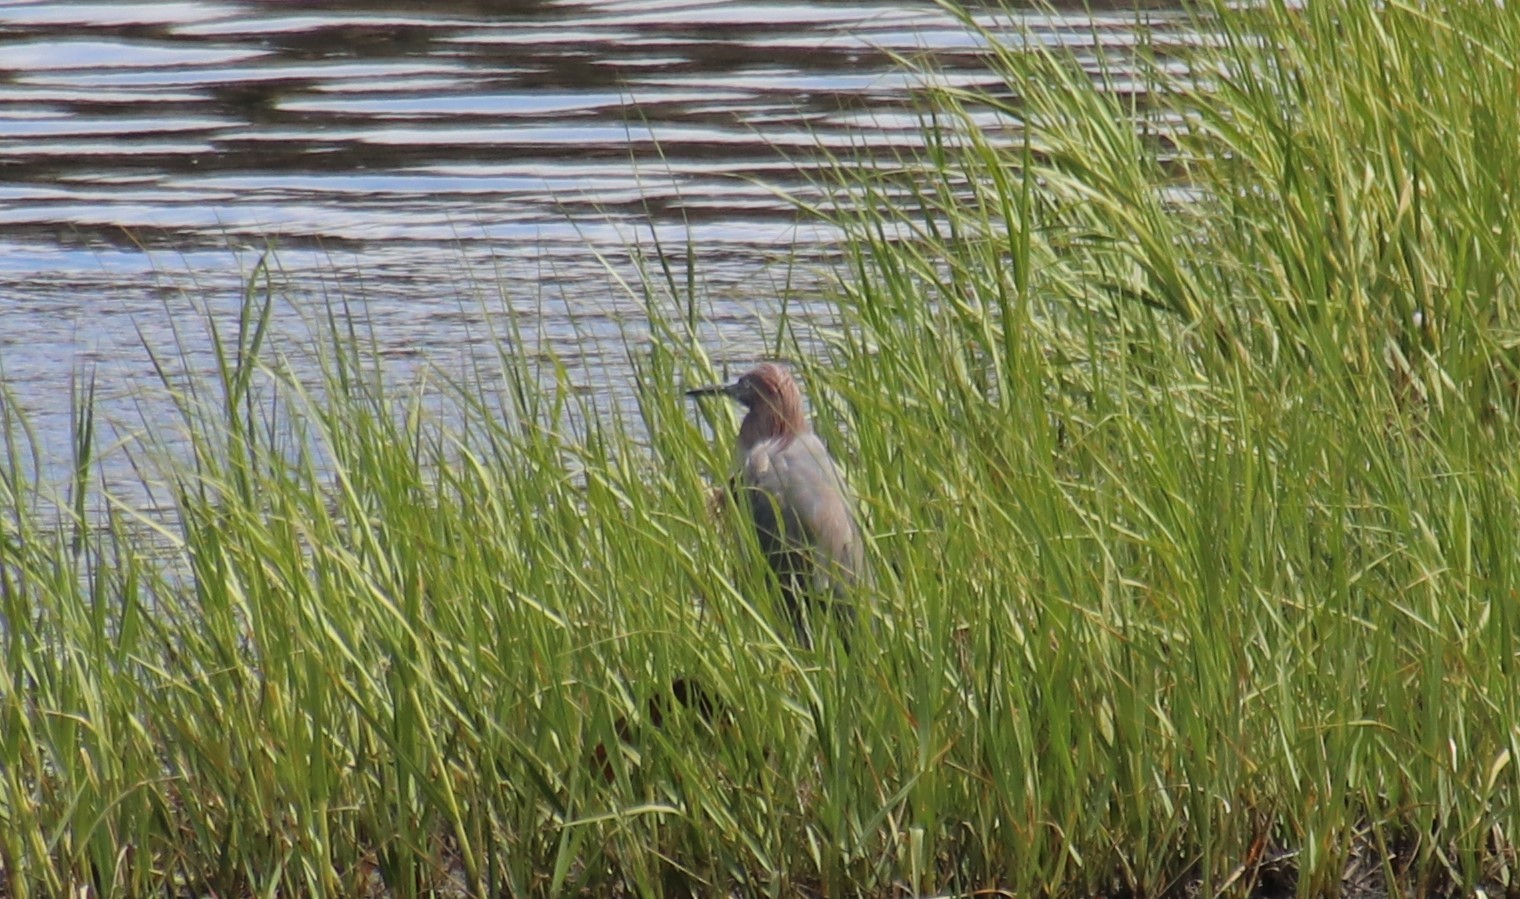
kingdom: Animalia
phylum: Chordata
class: Aves
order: Pelecaniformes
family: Ardeidae
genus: Egretta
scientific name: Egretta rufescens
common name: Reddish egret
